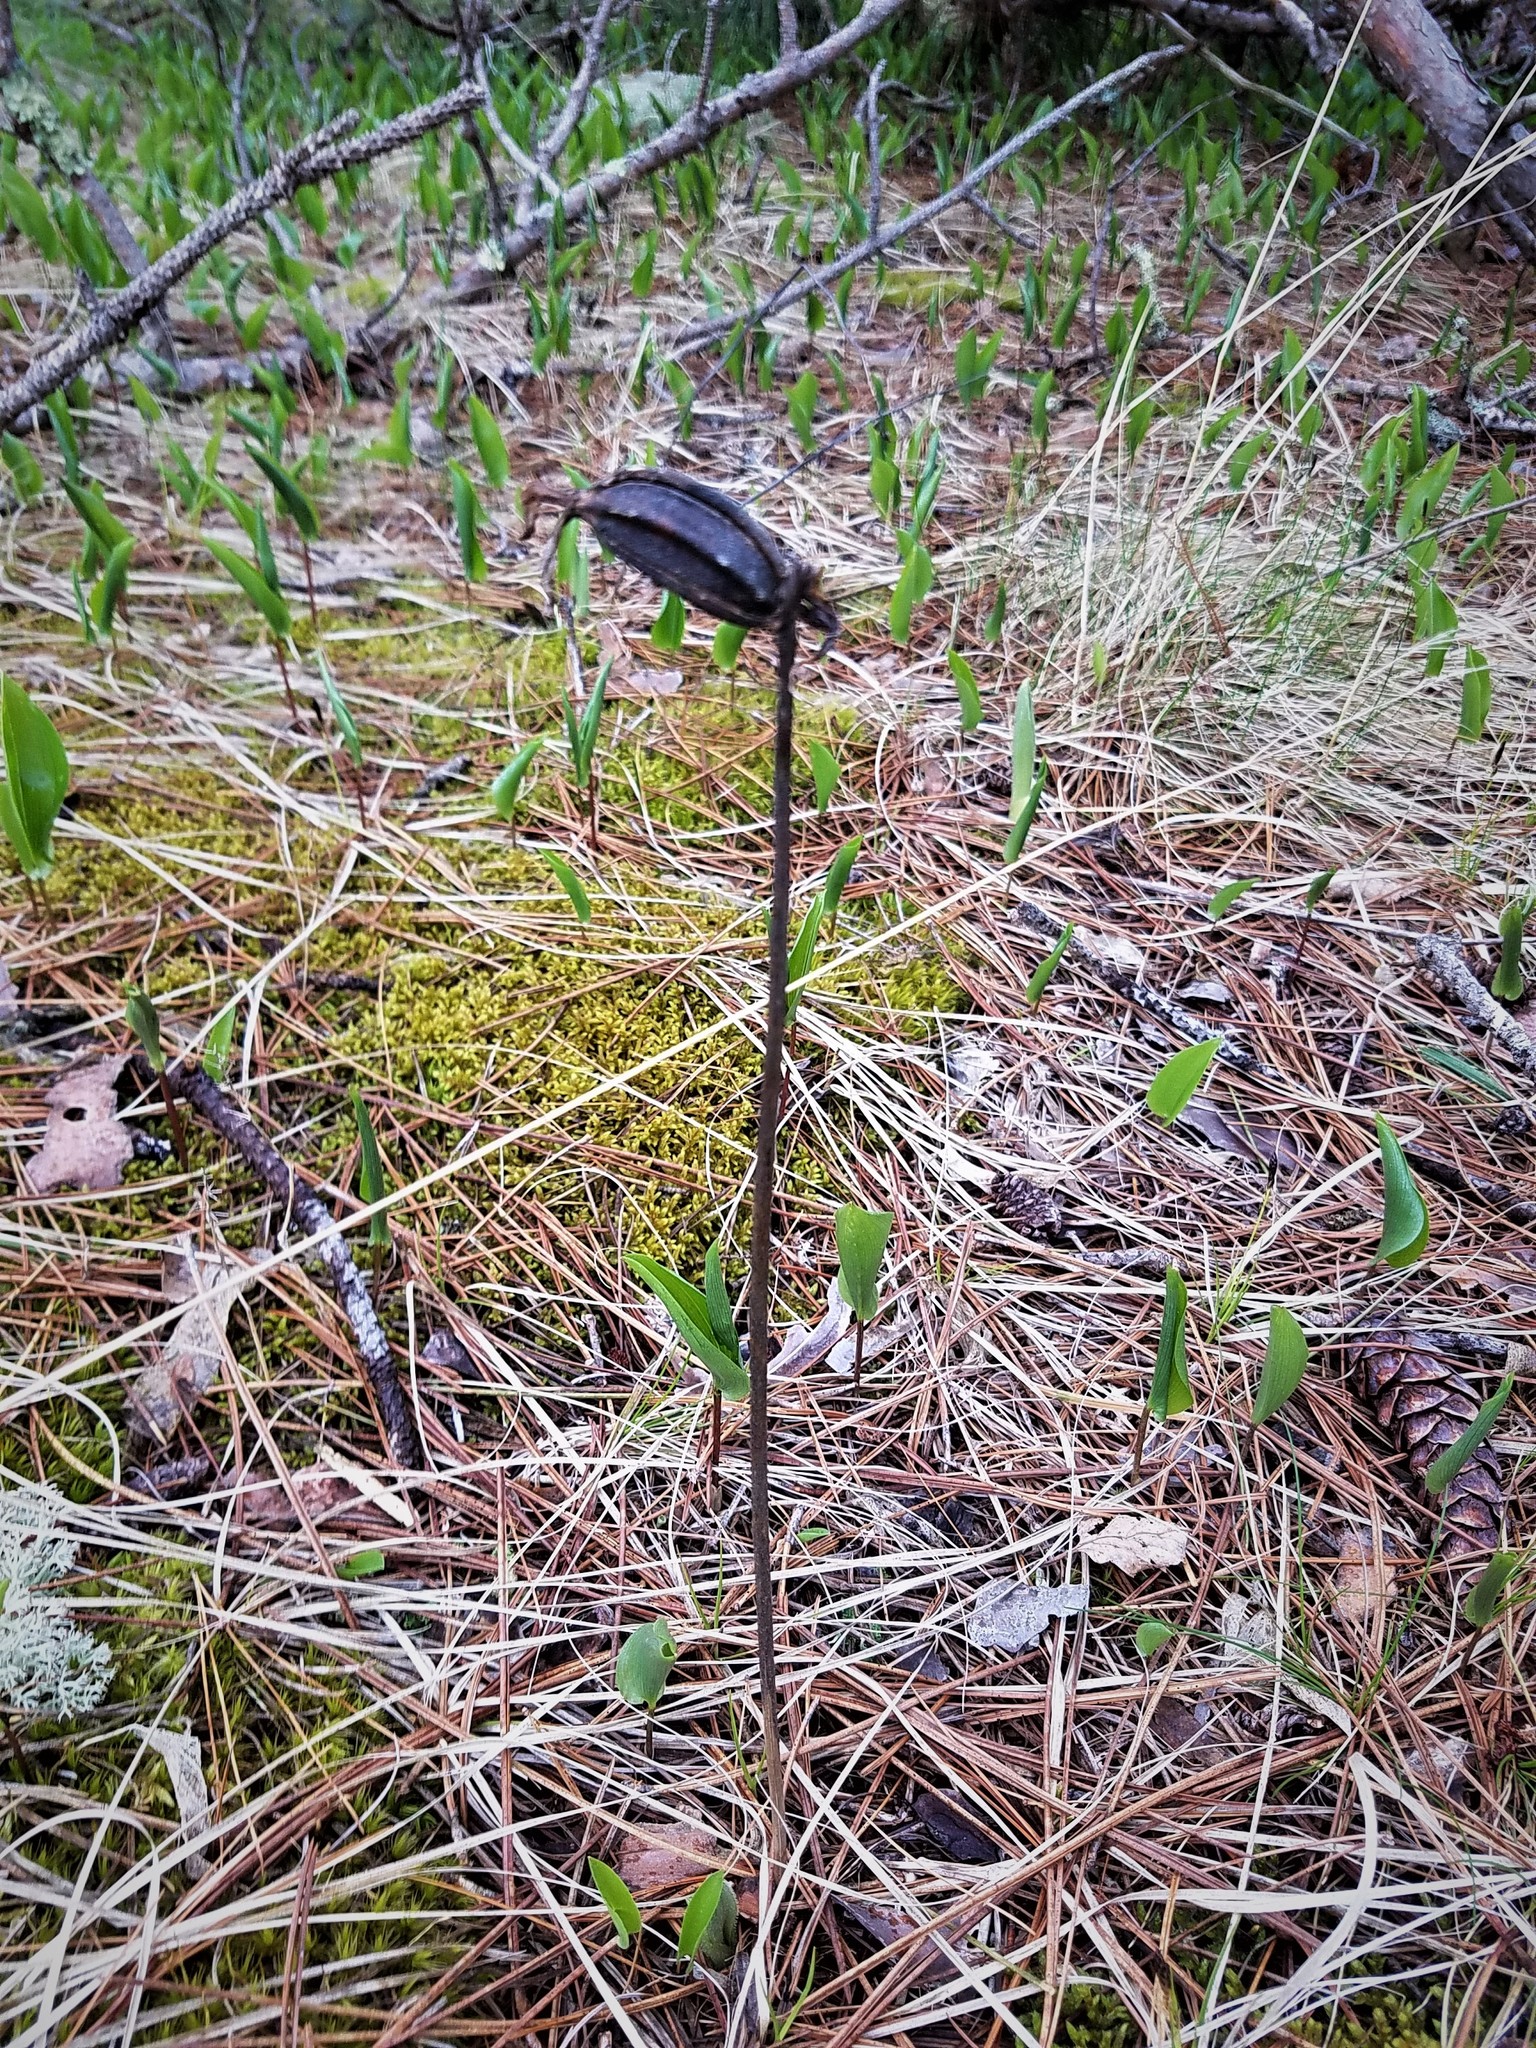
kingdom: Plantae
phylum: Tracheophyta
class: Liliopsida
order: Asparagales
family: Orchidaceae
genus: Cypripedium
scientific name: Cypripedium acaule
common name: Pink lady's-slipper
